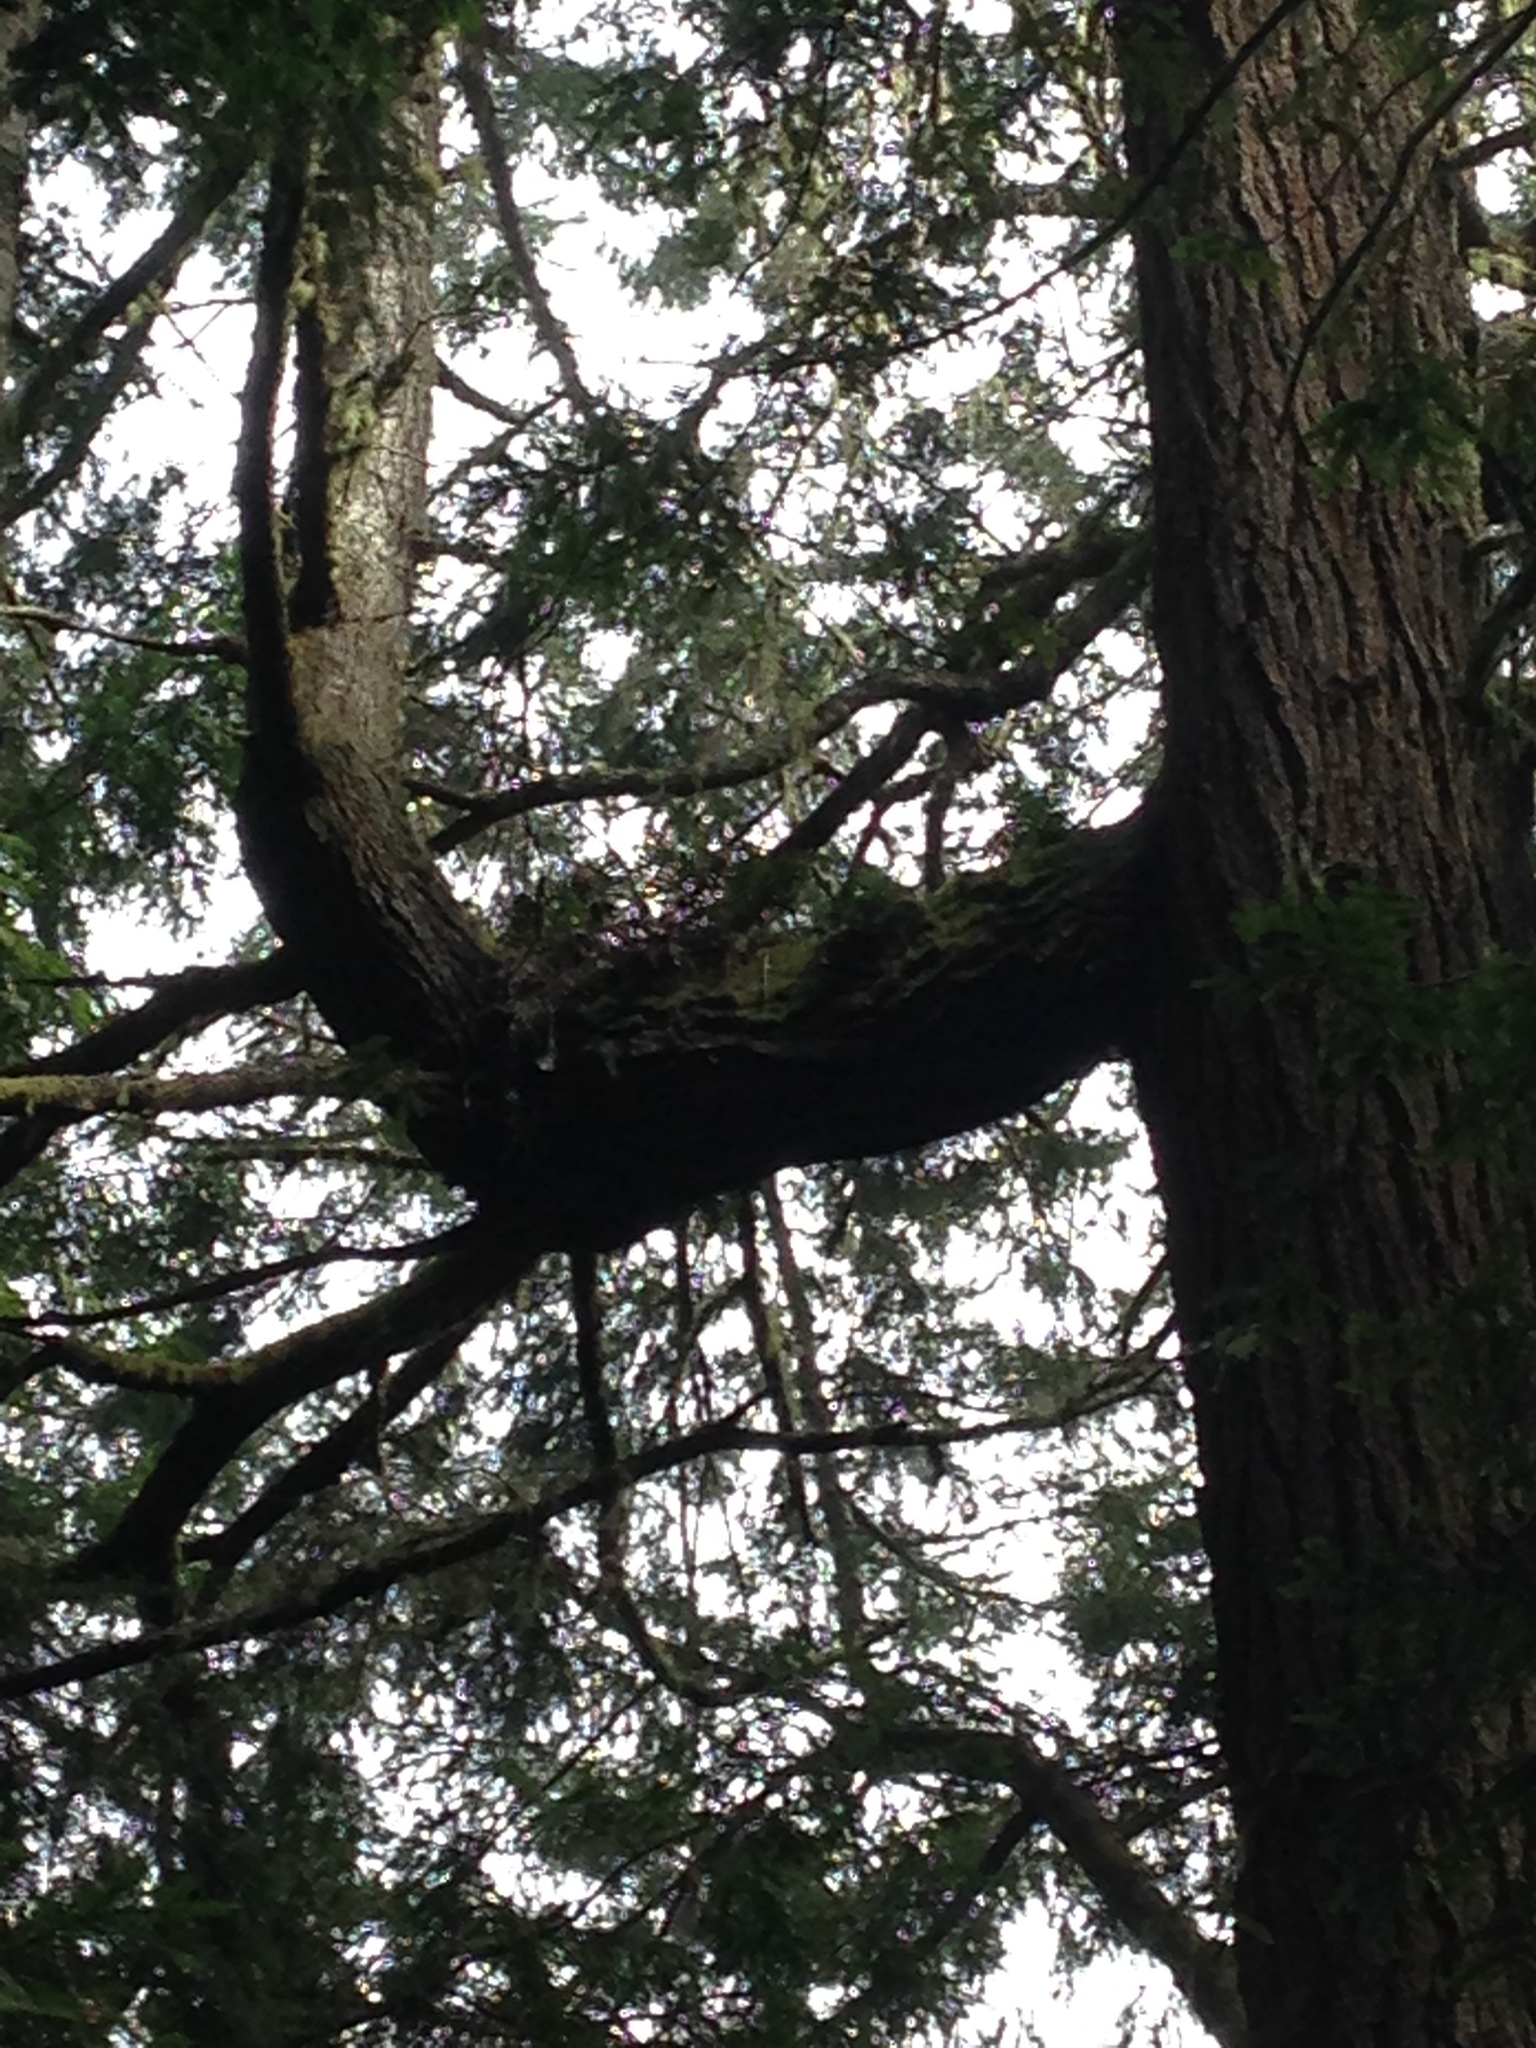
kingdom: Plantae
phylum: Tracheophyta
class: Polypodiopsida
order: Polypodiales
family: Polypodiaceae
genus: Polypodium
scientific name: Polypodium scouleri
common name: Scouler's polypody
